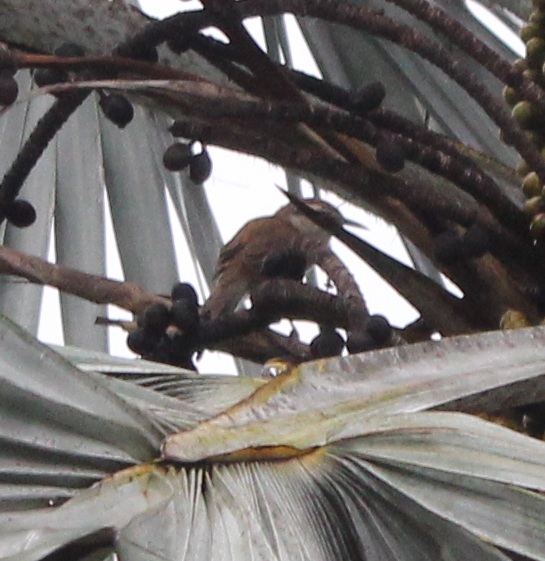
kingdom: Animalia
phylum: Chordata
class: Aves
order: Passeriformes
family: Troglodytidae
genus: Campylorhynchus
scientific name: Campylorhynchus griseus
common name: Bicolored wren
